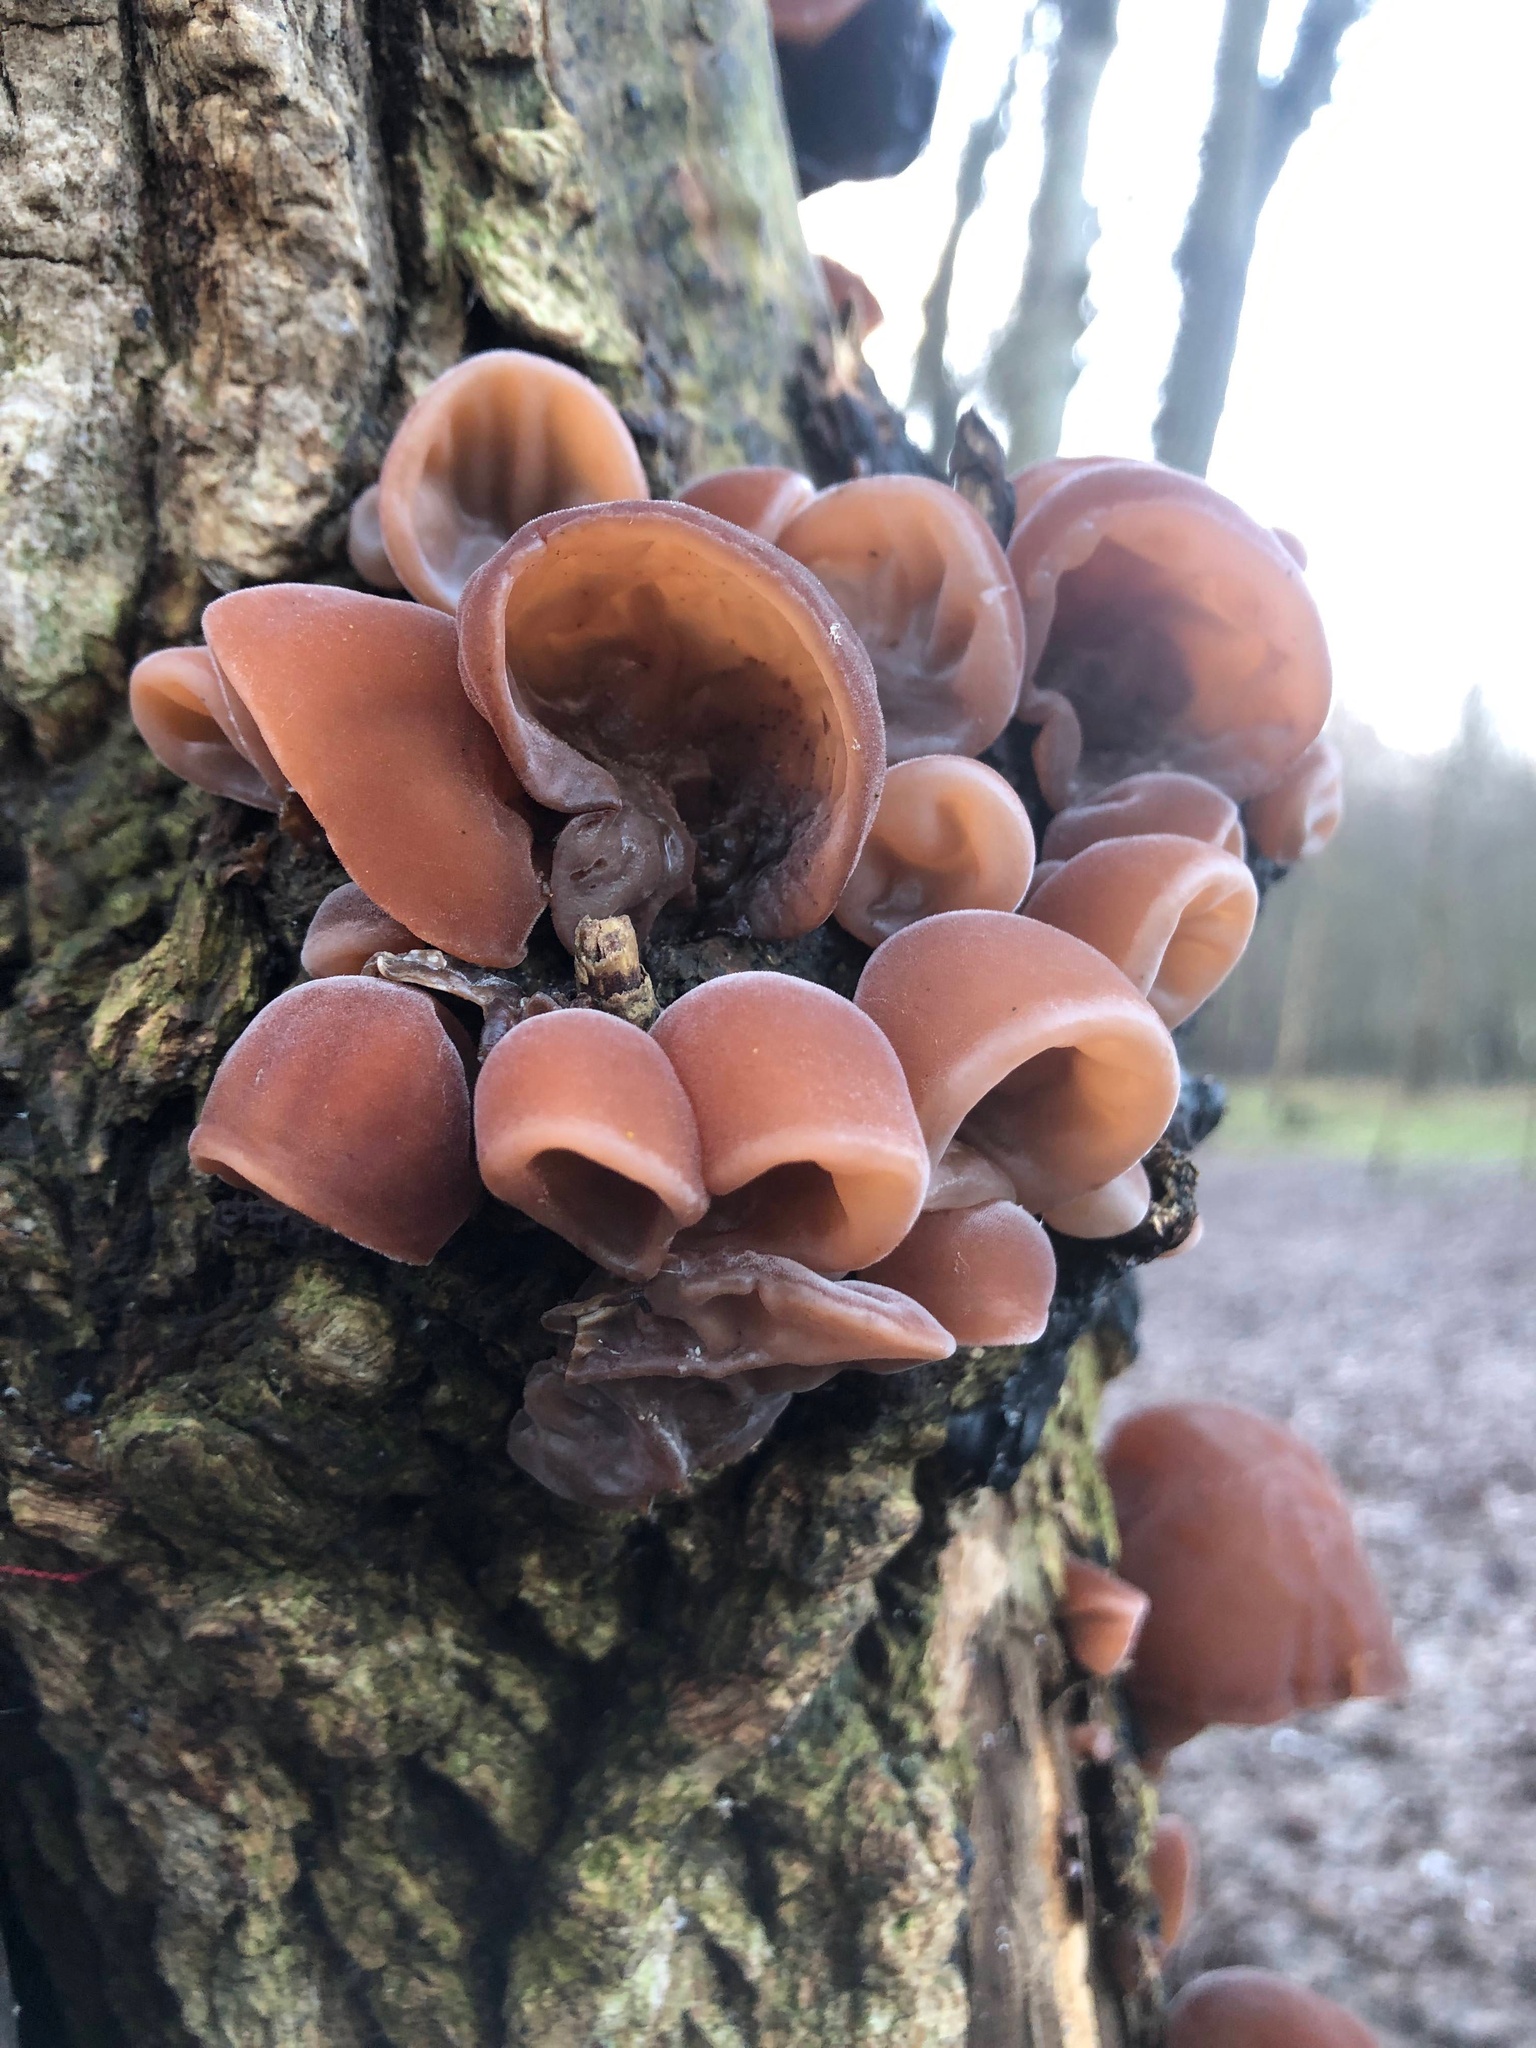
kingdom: Fungi
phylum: Basidiomycota
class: Agaricomycetes
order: Auriculariales
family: Auriculariaceae
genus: Auricularia
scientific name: Auricularia auricula-judae
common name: Jelly ear
